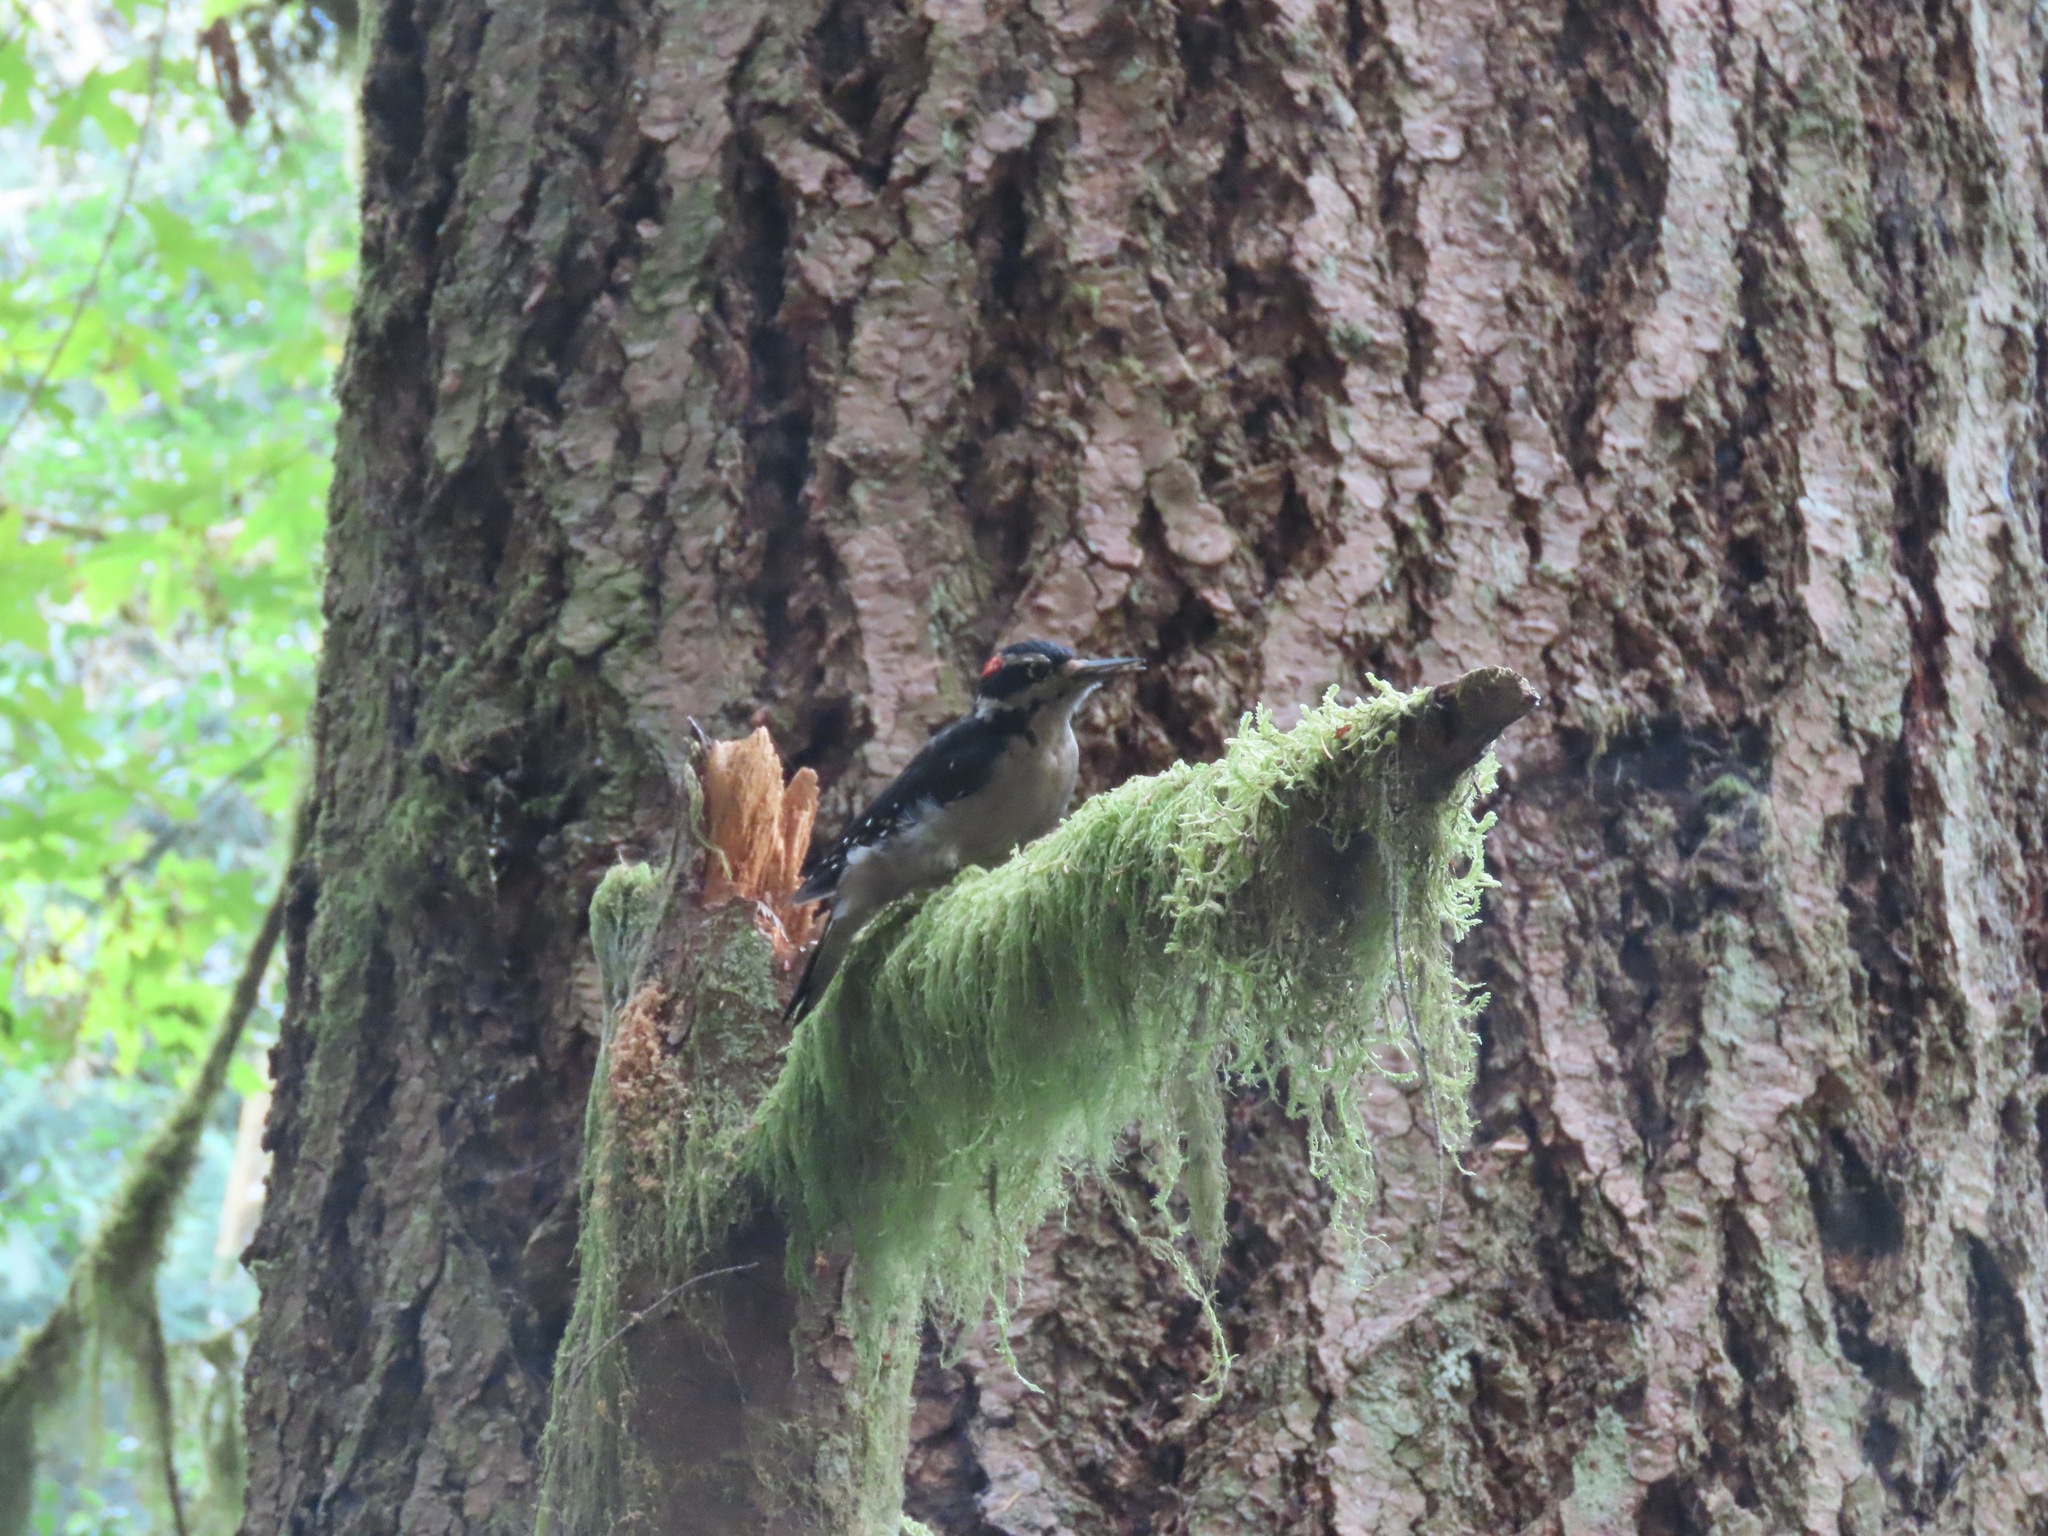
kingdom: Animalia
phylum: Chordata
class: Aves
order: Piciformes
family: Picidae
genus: Leuconotopicus
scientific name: Leuconotopicus villosus
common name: Hairy woodpecker
